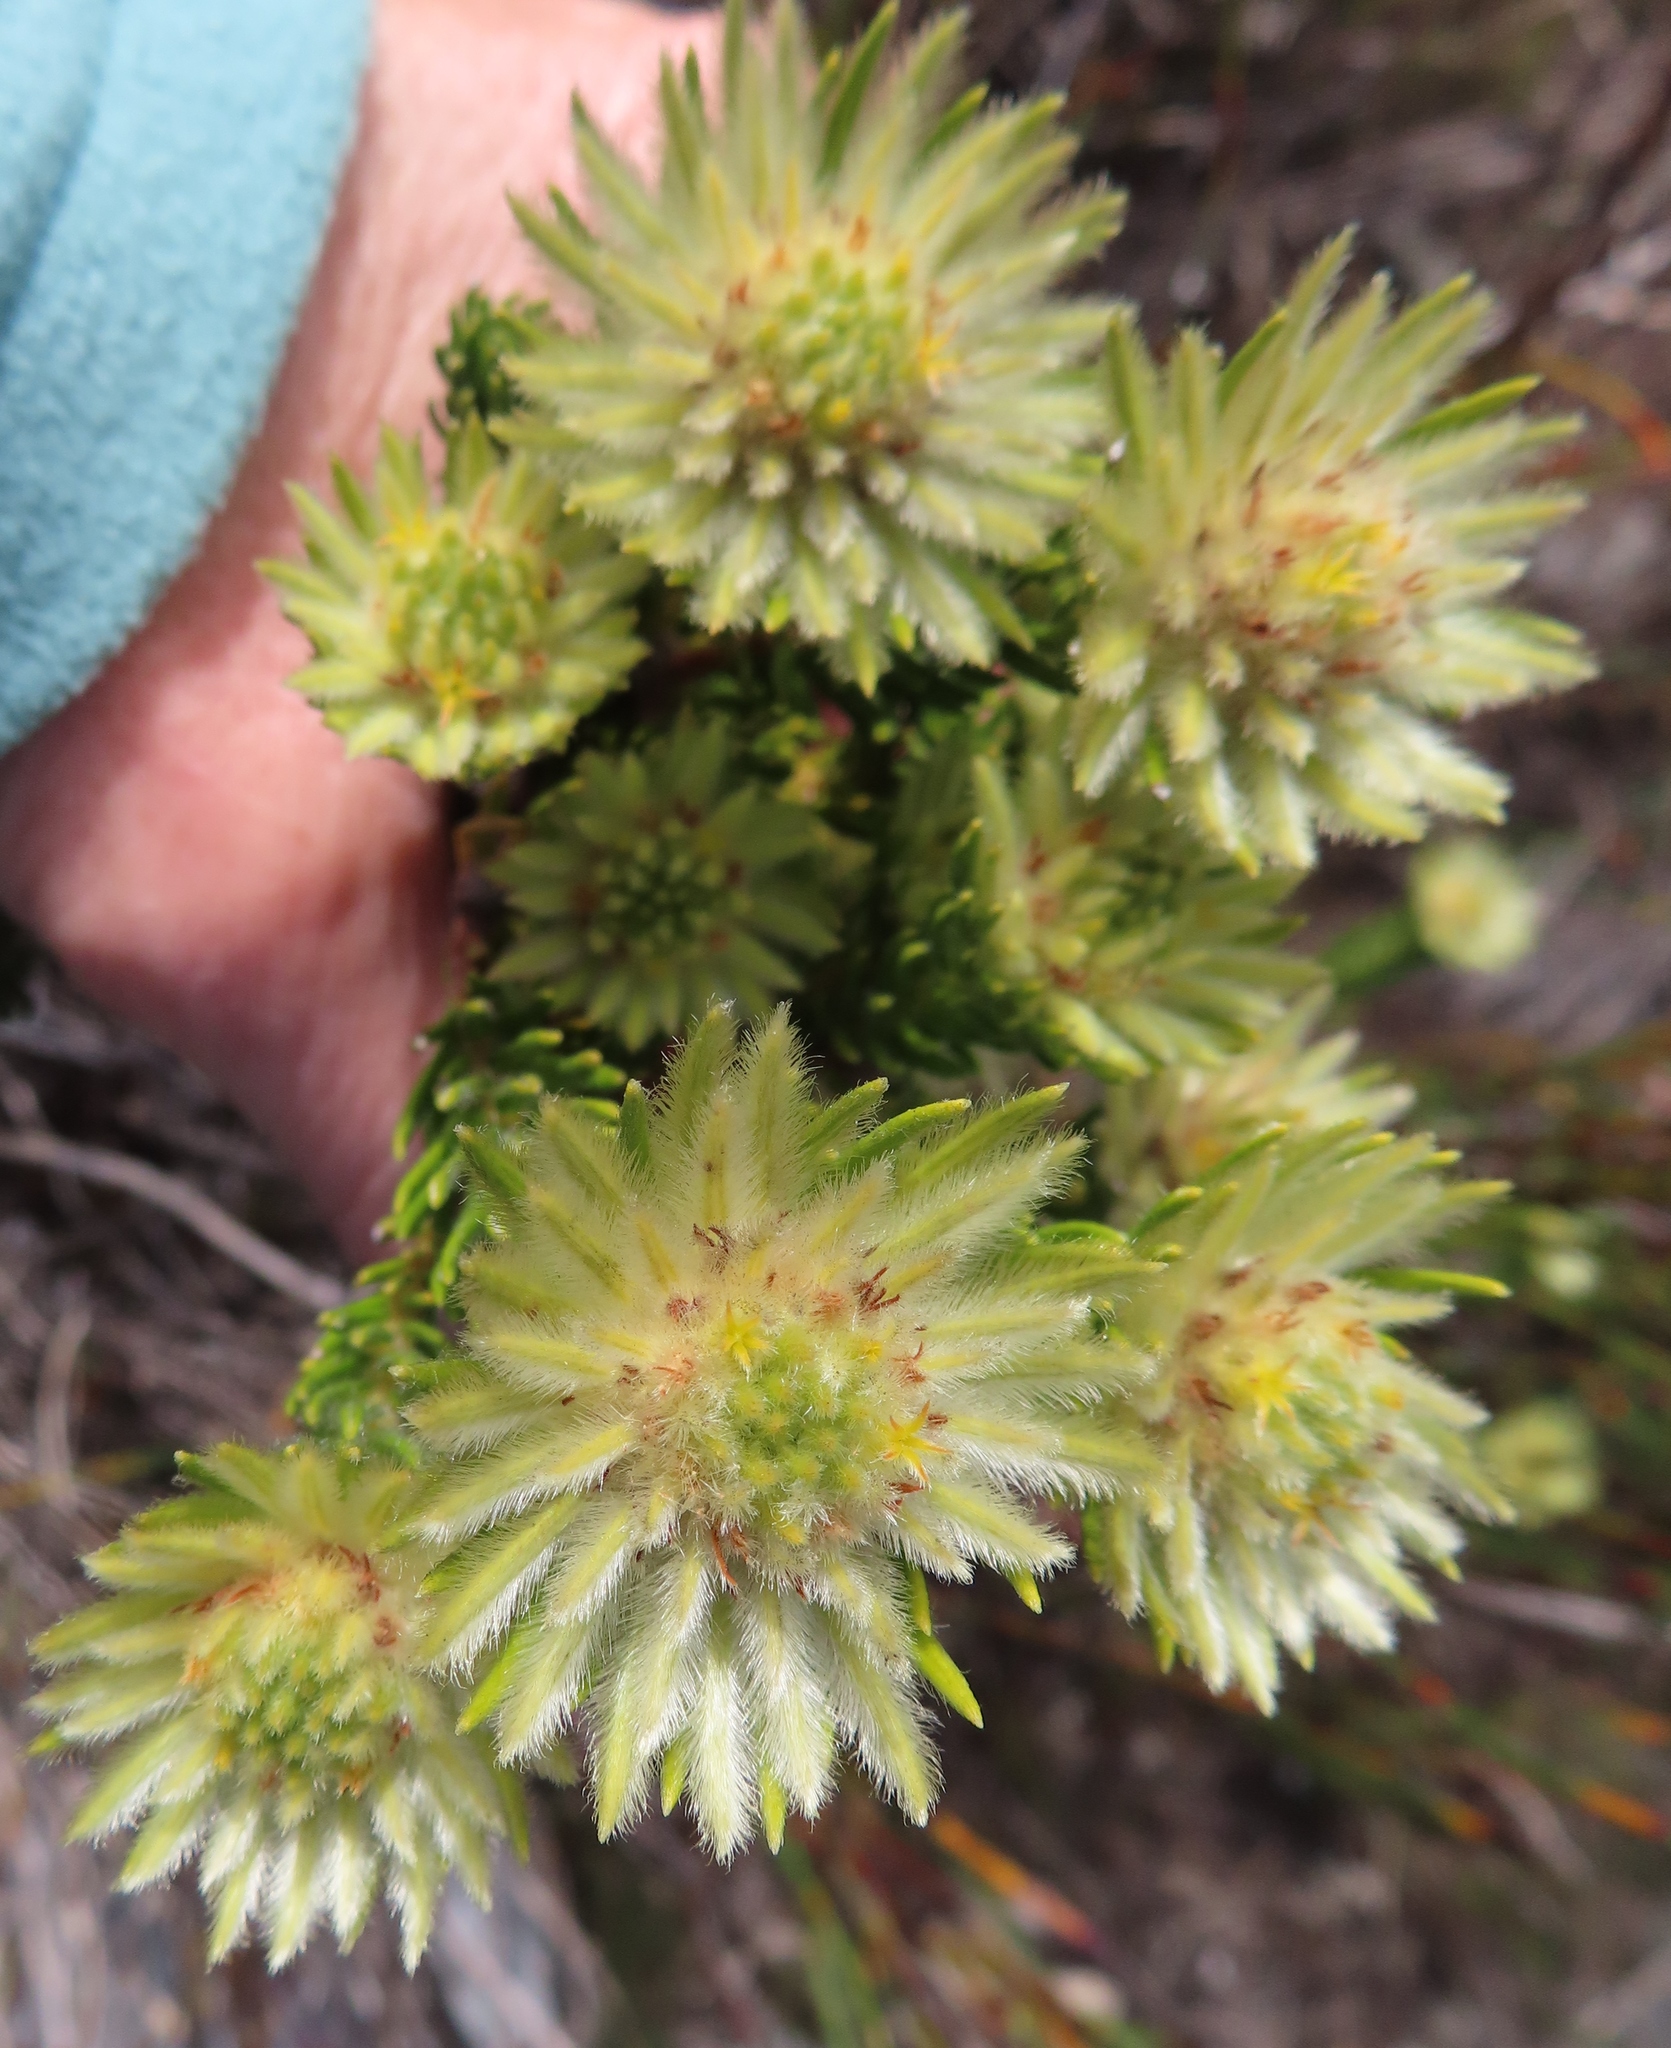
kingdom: Plantae
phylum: Tracheophyta
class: Magnoliopsida
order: Rosales
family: Rhamnaceae
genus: Phylica
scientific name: Phylica pubescens
